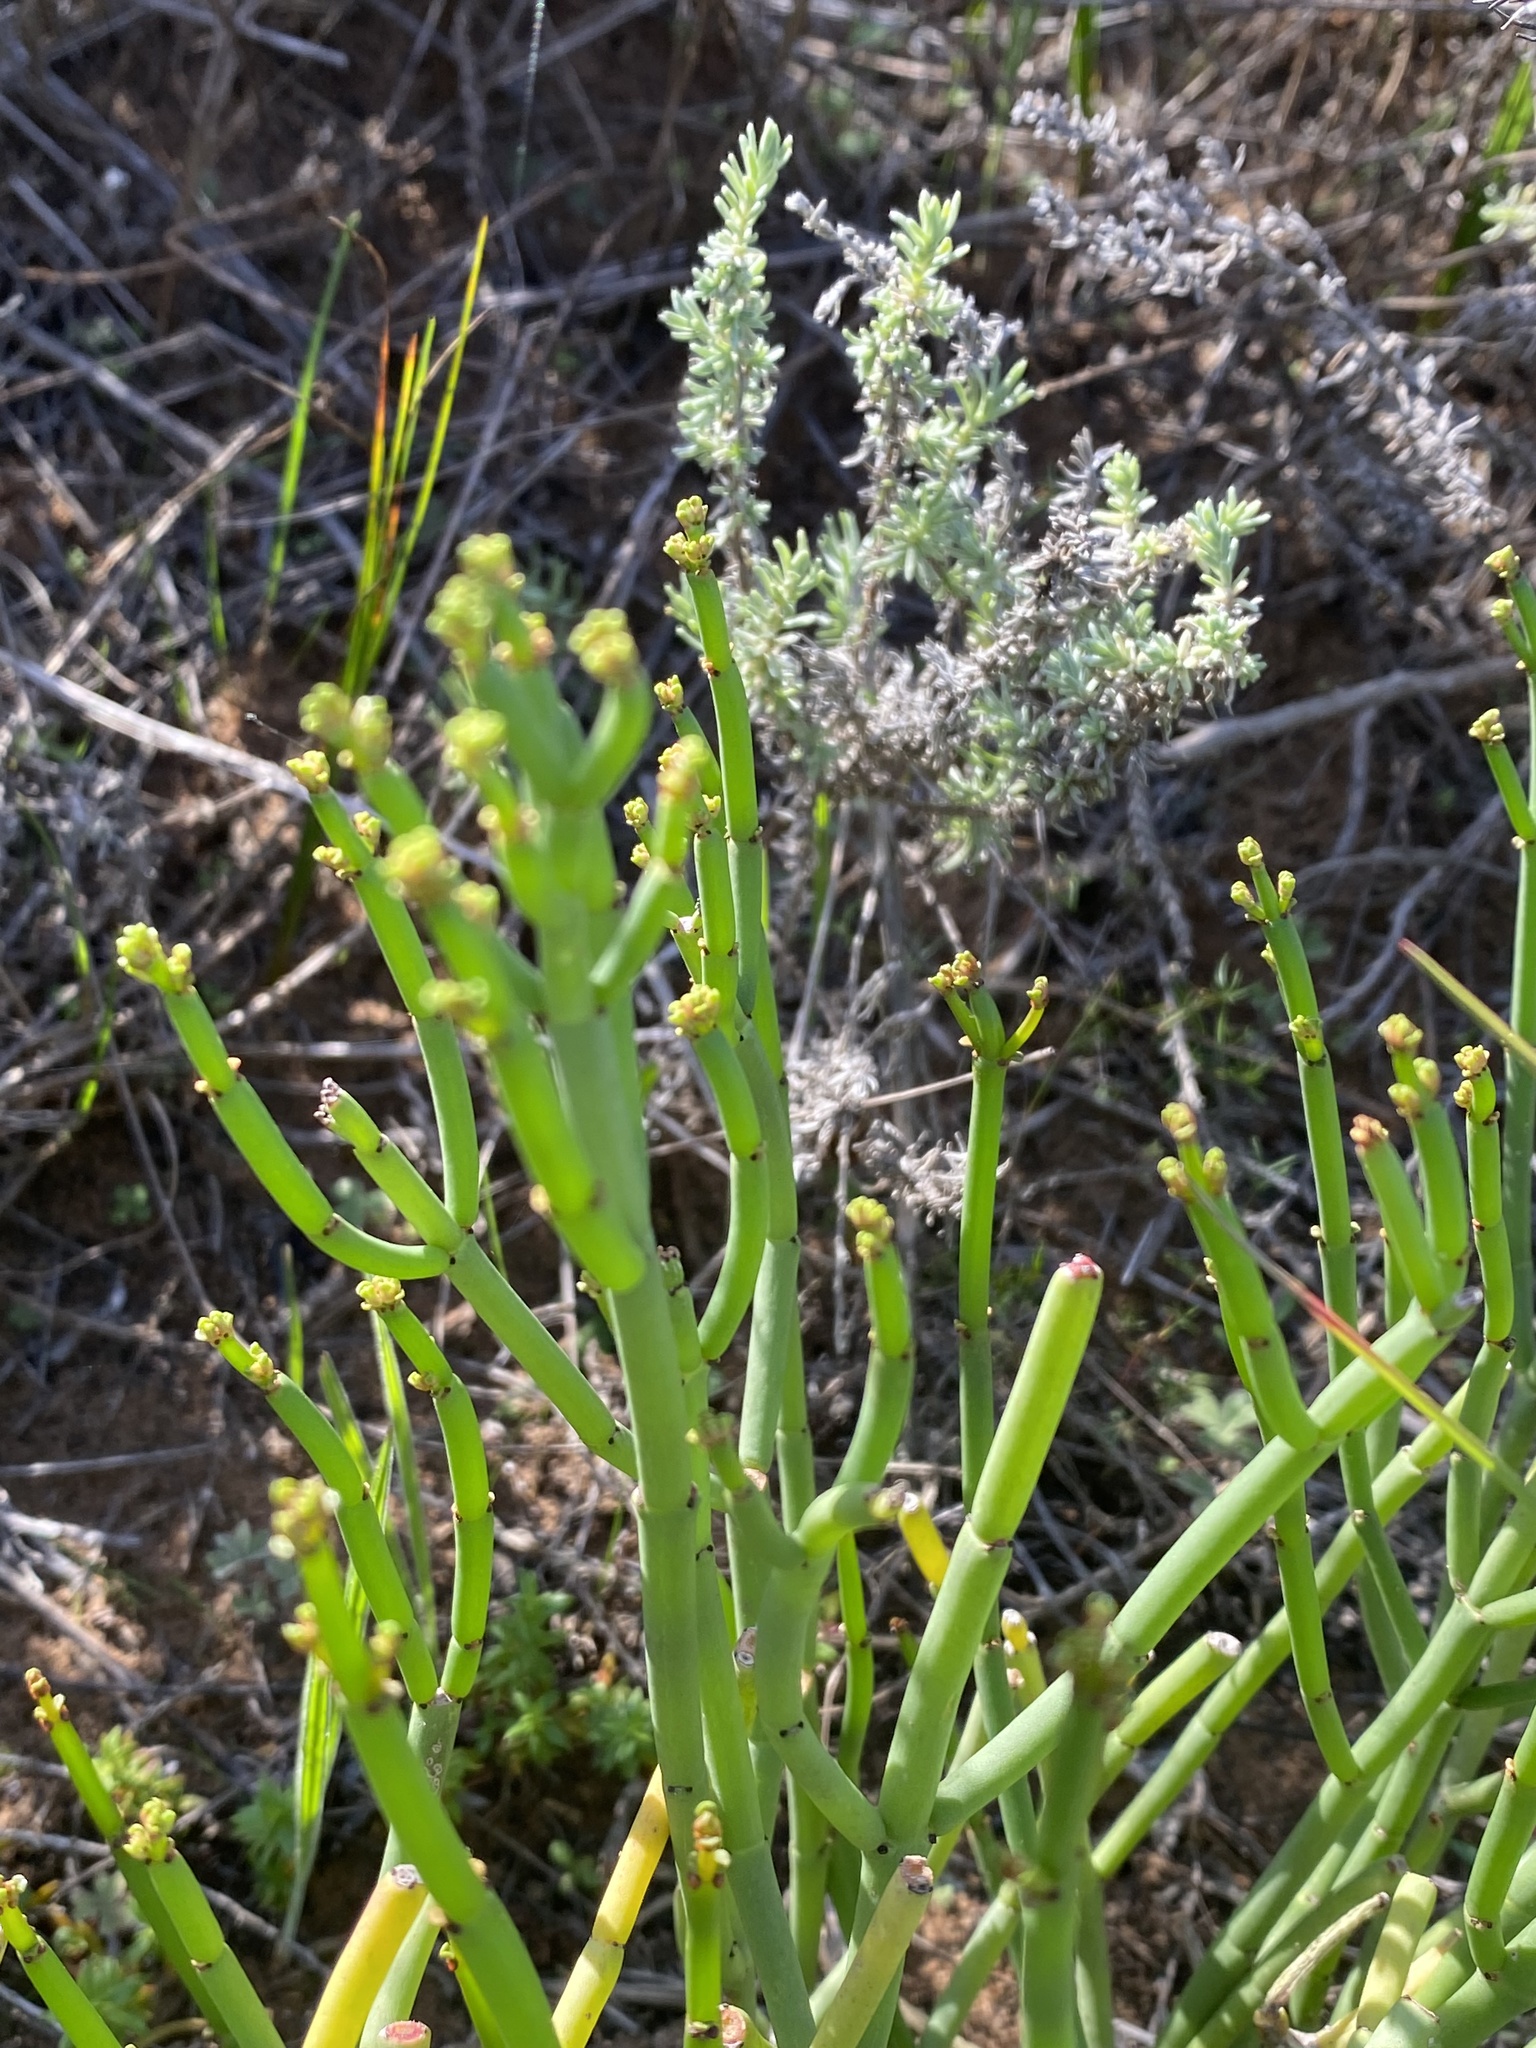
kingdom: Plantae
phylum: Tracheophyta
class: Magnoliopsida
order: Malpighiales
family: Euphorbiaceae
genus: Euphorbia
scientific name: Euphorbia burmanni
